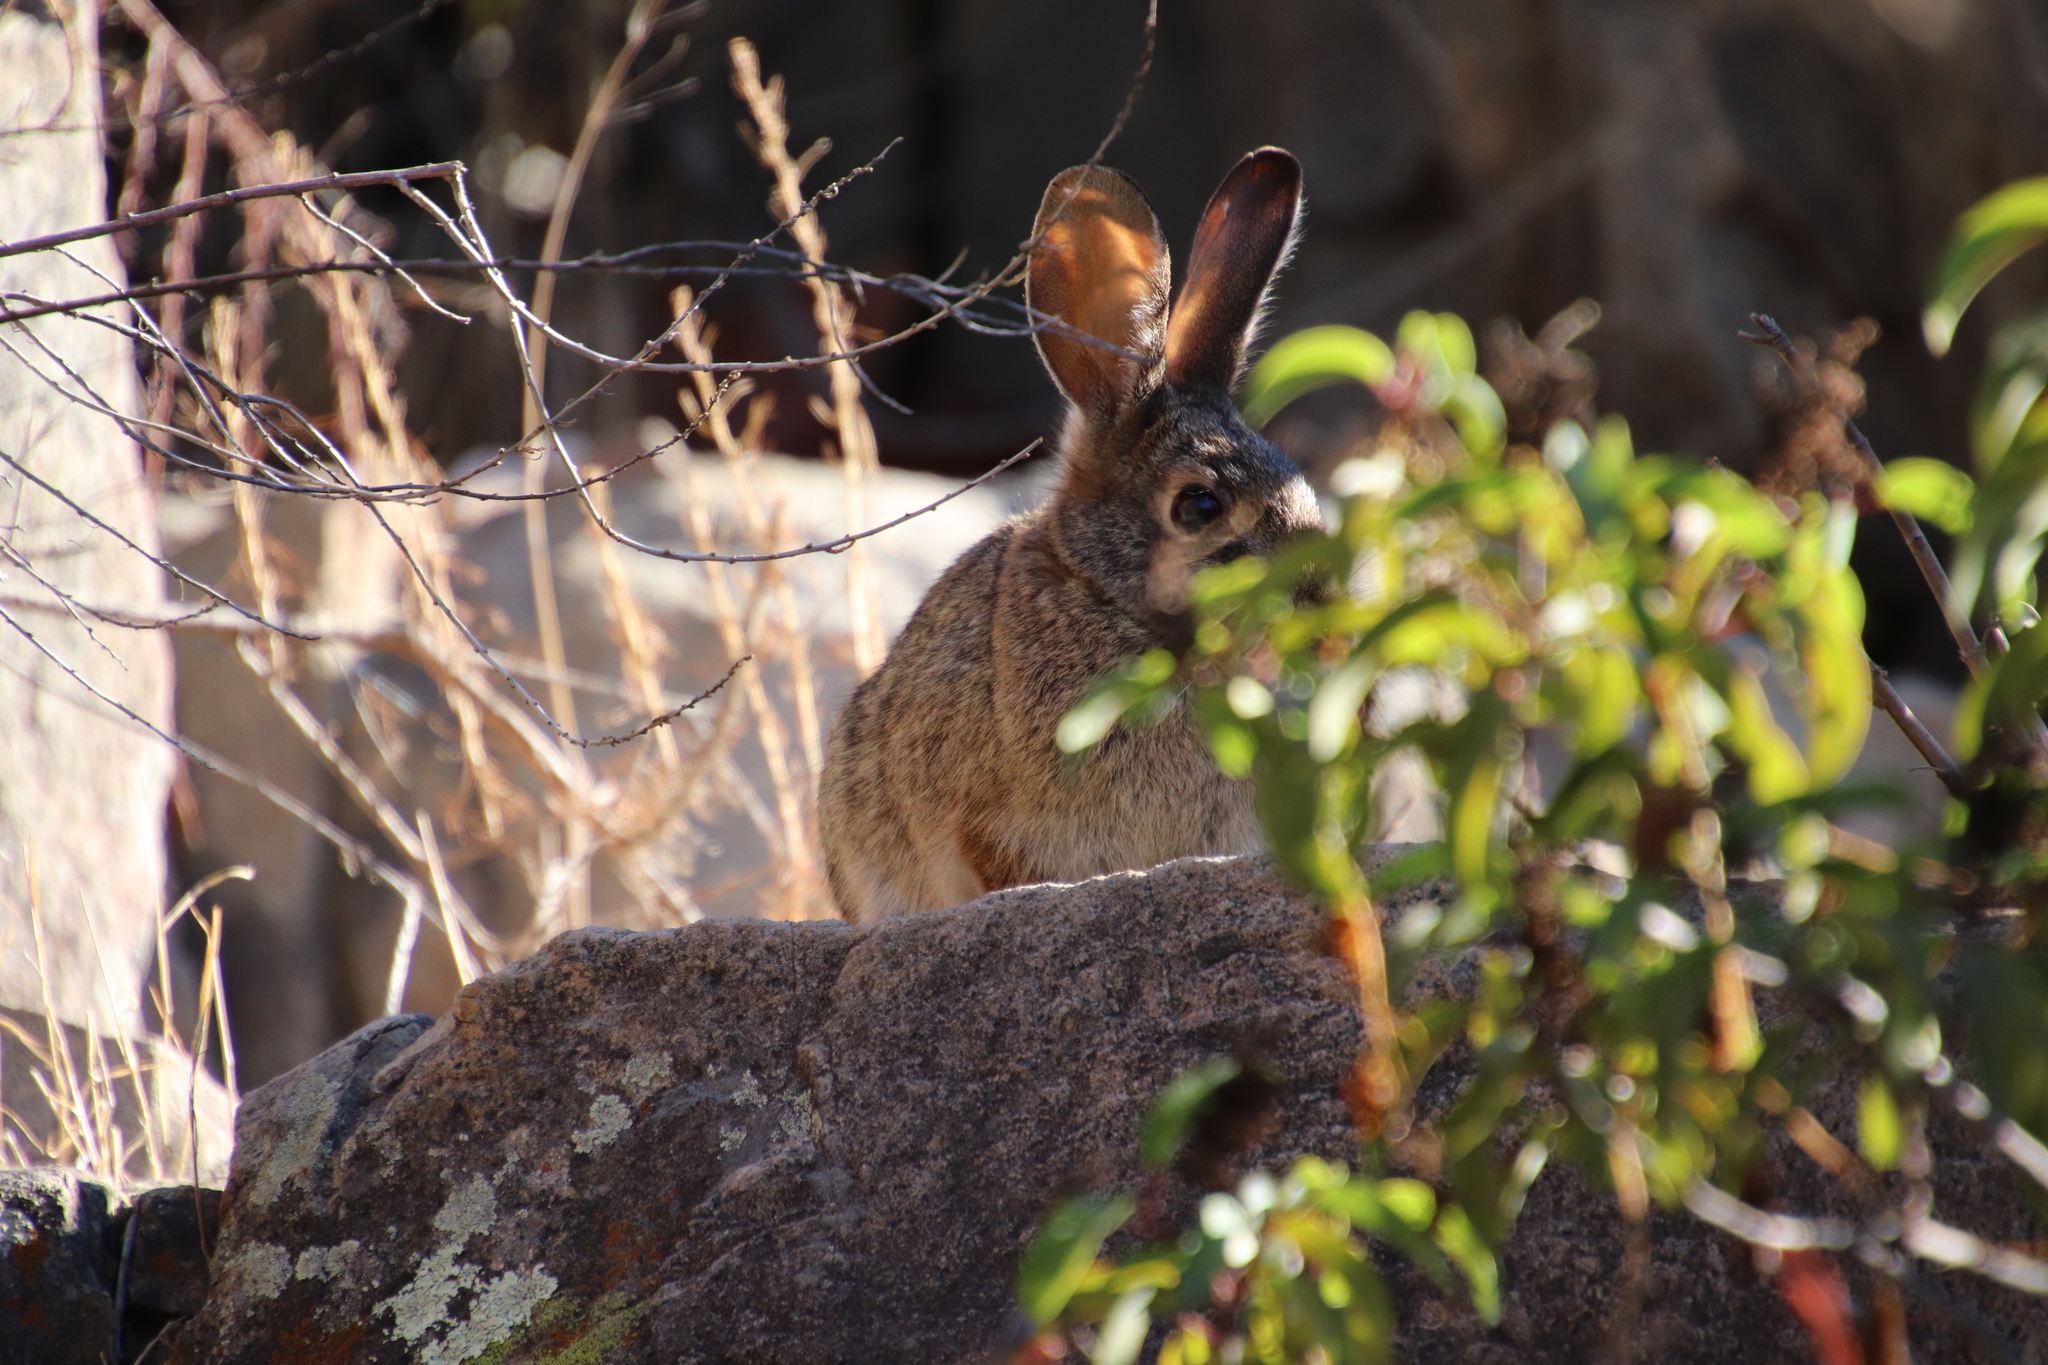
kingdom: Animalia
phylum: Chordata
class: Mammalia
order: Lagomorpha
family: Leporidae
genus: Sylvilagus
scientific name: Sylvilagus audubonii
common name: Desert cottontail
